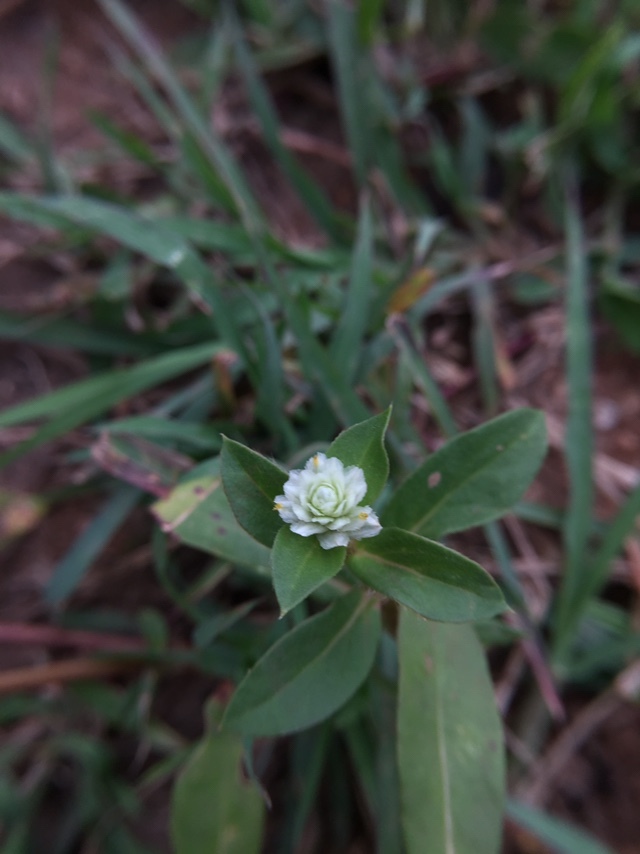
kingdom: Plantae
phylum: Tracheophyta
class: Magnoliopsida
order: Caryophyllales
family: Amaranthaceae
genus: Gomphrena
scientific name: Gomphrena serrata
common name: Arrasa con todo
